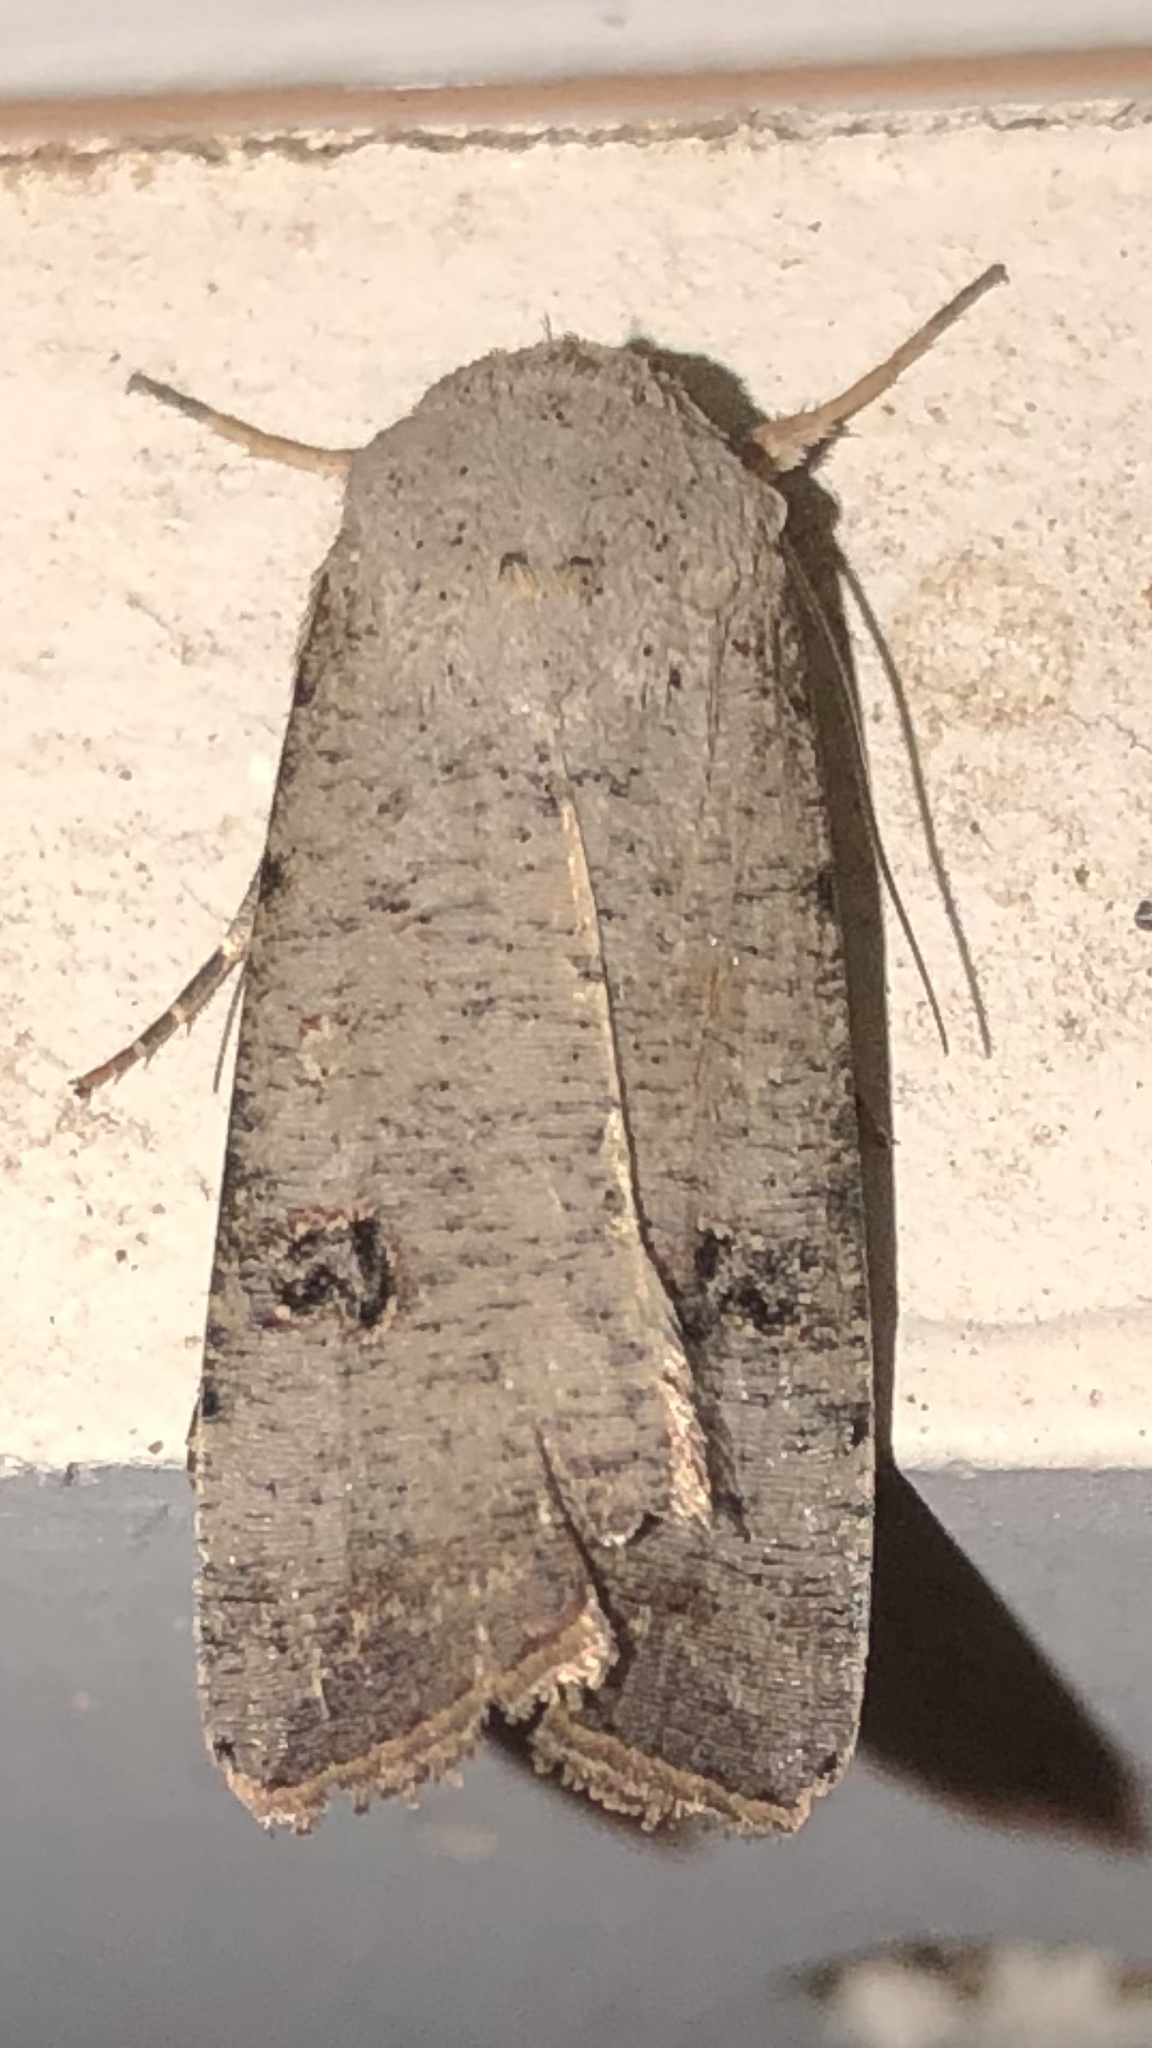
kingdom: Animalia
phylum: Arthropoda
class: Insecta
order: Lepidoptera
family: Noctuidae
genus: Anicla
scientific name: Anicla infecta
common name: Green cutworm
